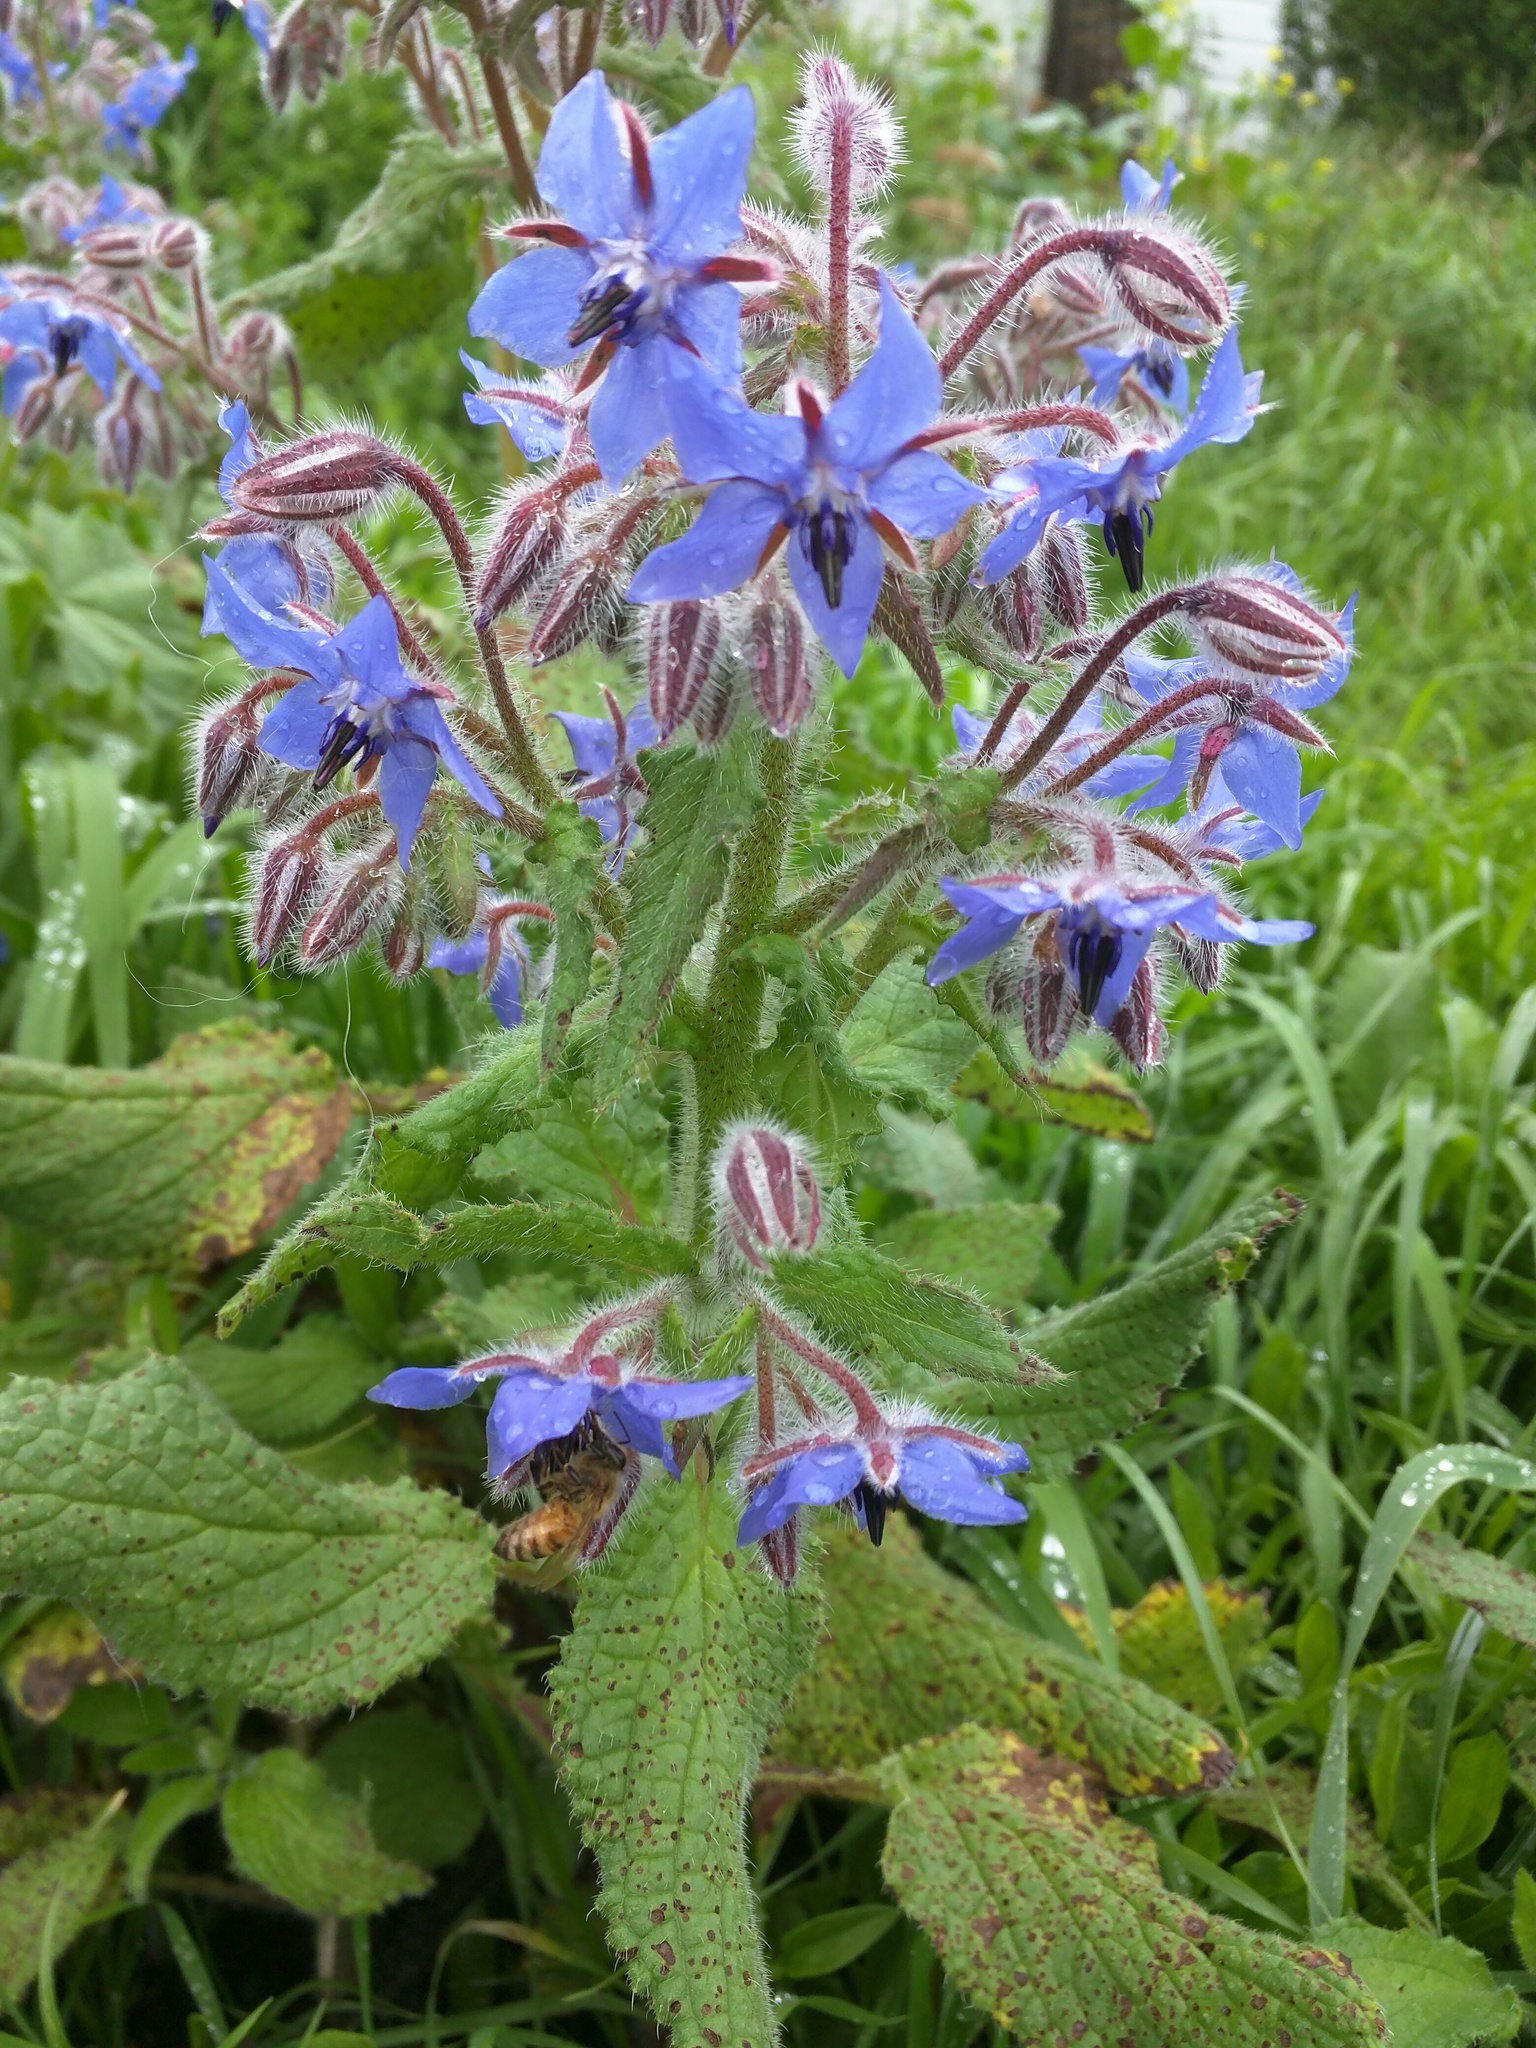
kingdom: Plantae
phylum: Tracheophyta
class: Magnoliopsida
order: Boraginales
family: Boraginaceae
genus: Borago
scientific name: Borago officinalis
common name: Borage
